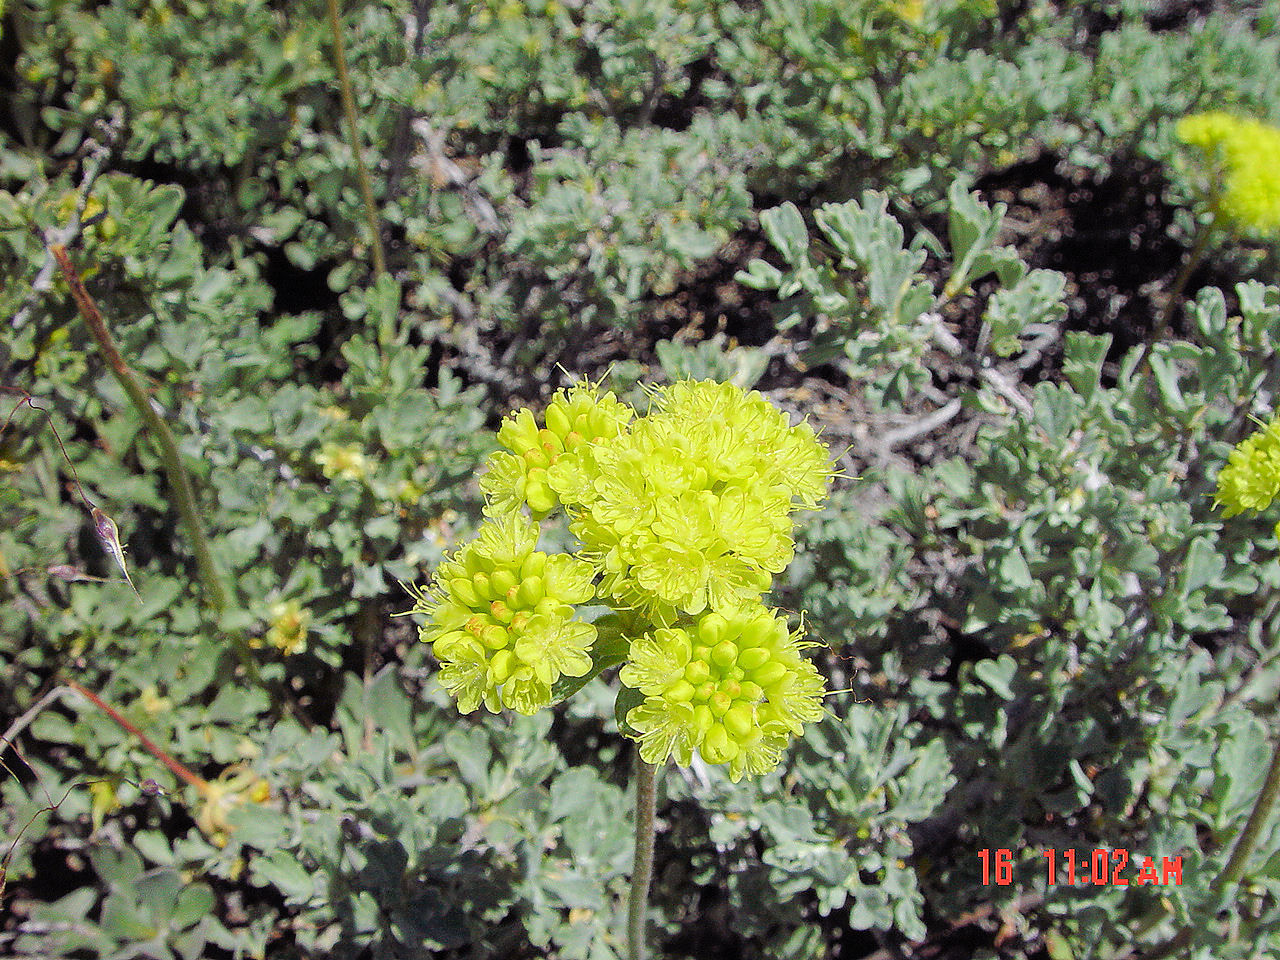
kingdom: Plantae
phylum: Tracheophyta
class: Magnoliopsida
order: Caryophyllales
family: Polygonaceae
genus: Eriogonum
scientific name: Eriogonum umbellatum
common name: Sulfur-buckwheat
